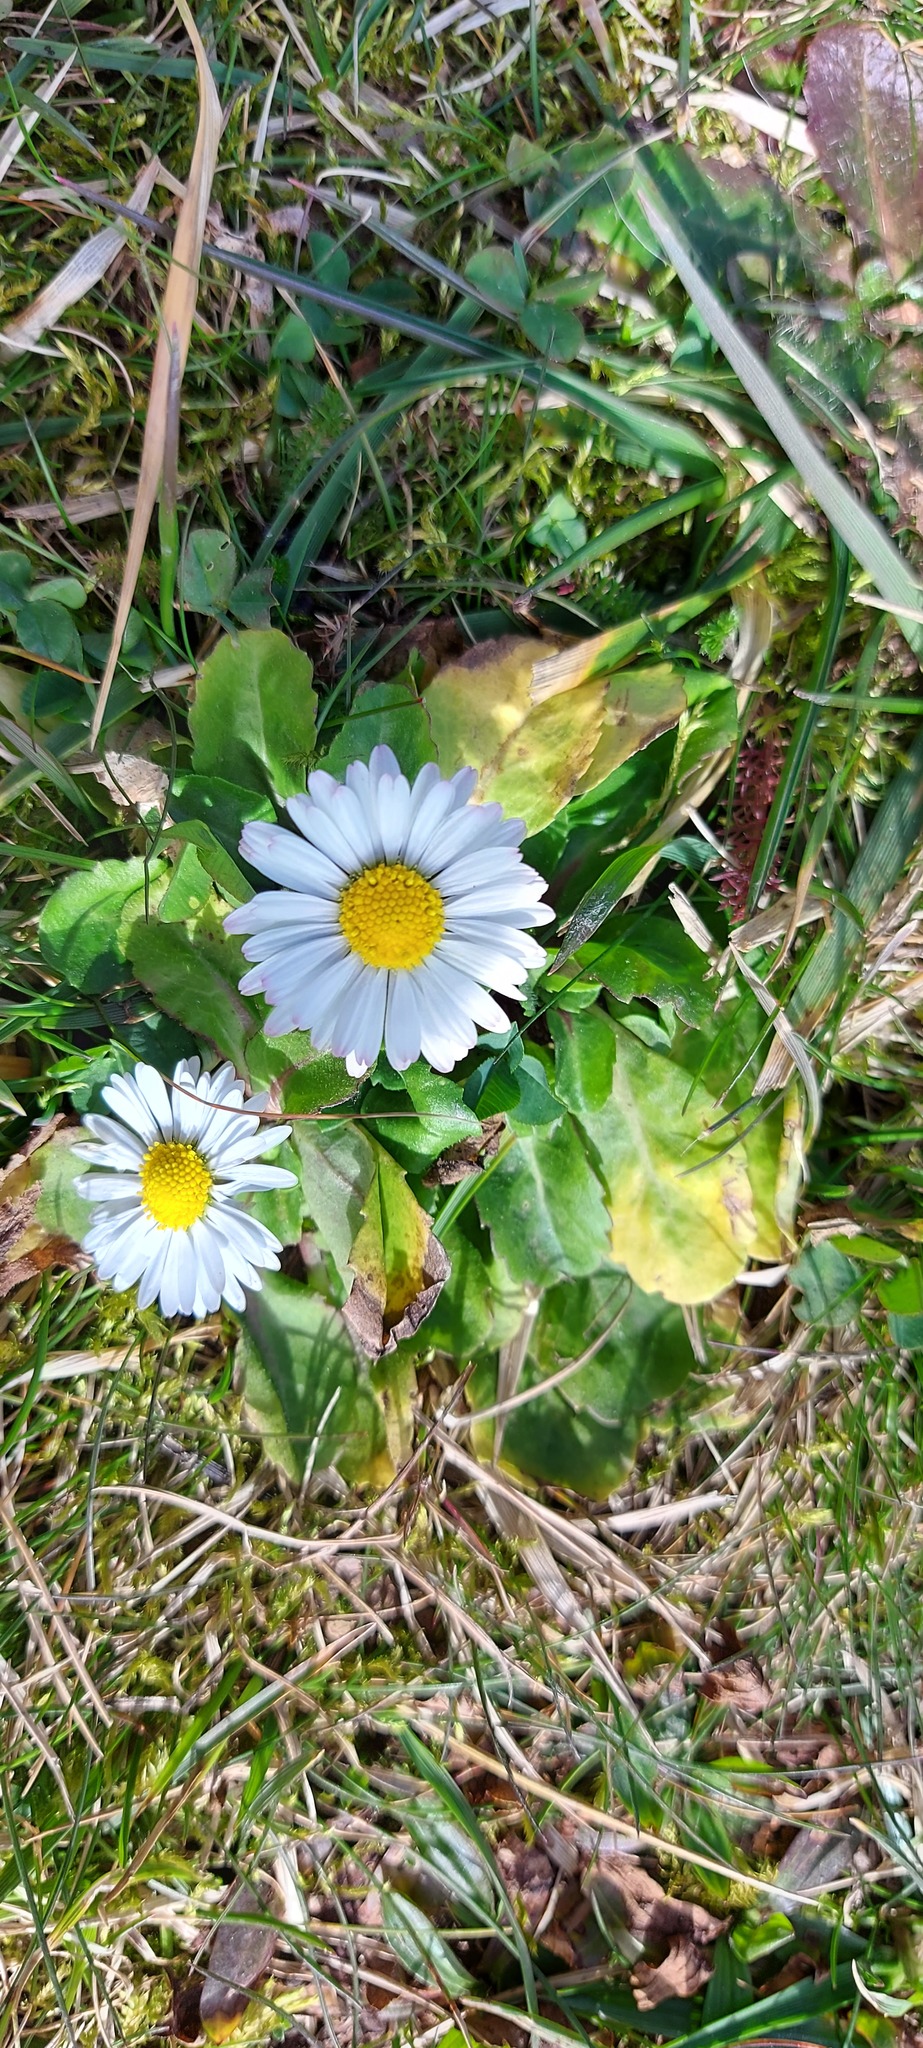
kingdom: Plantae
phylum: Tracheophyta
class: Magnoliopsida
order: Asterales
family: Asteraceae
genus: Bellis
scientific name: Bellis perennis
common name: Lawndaisy
